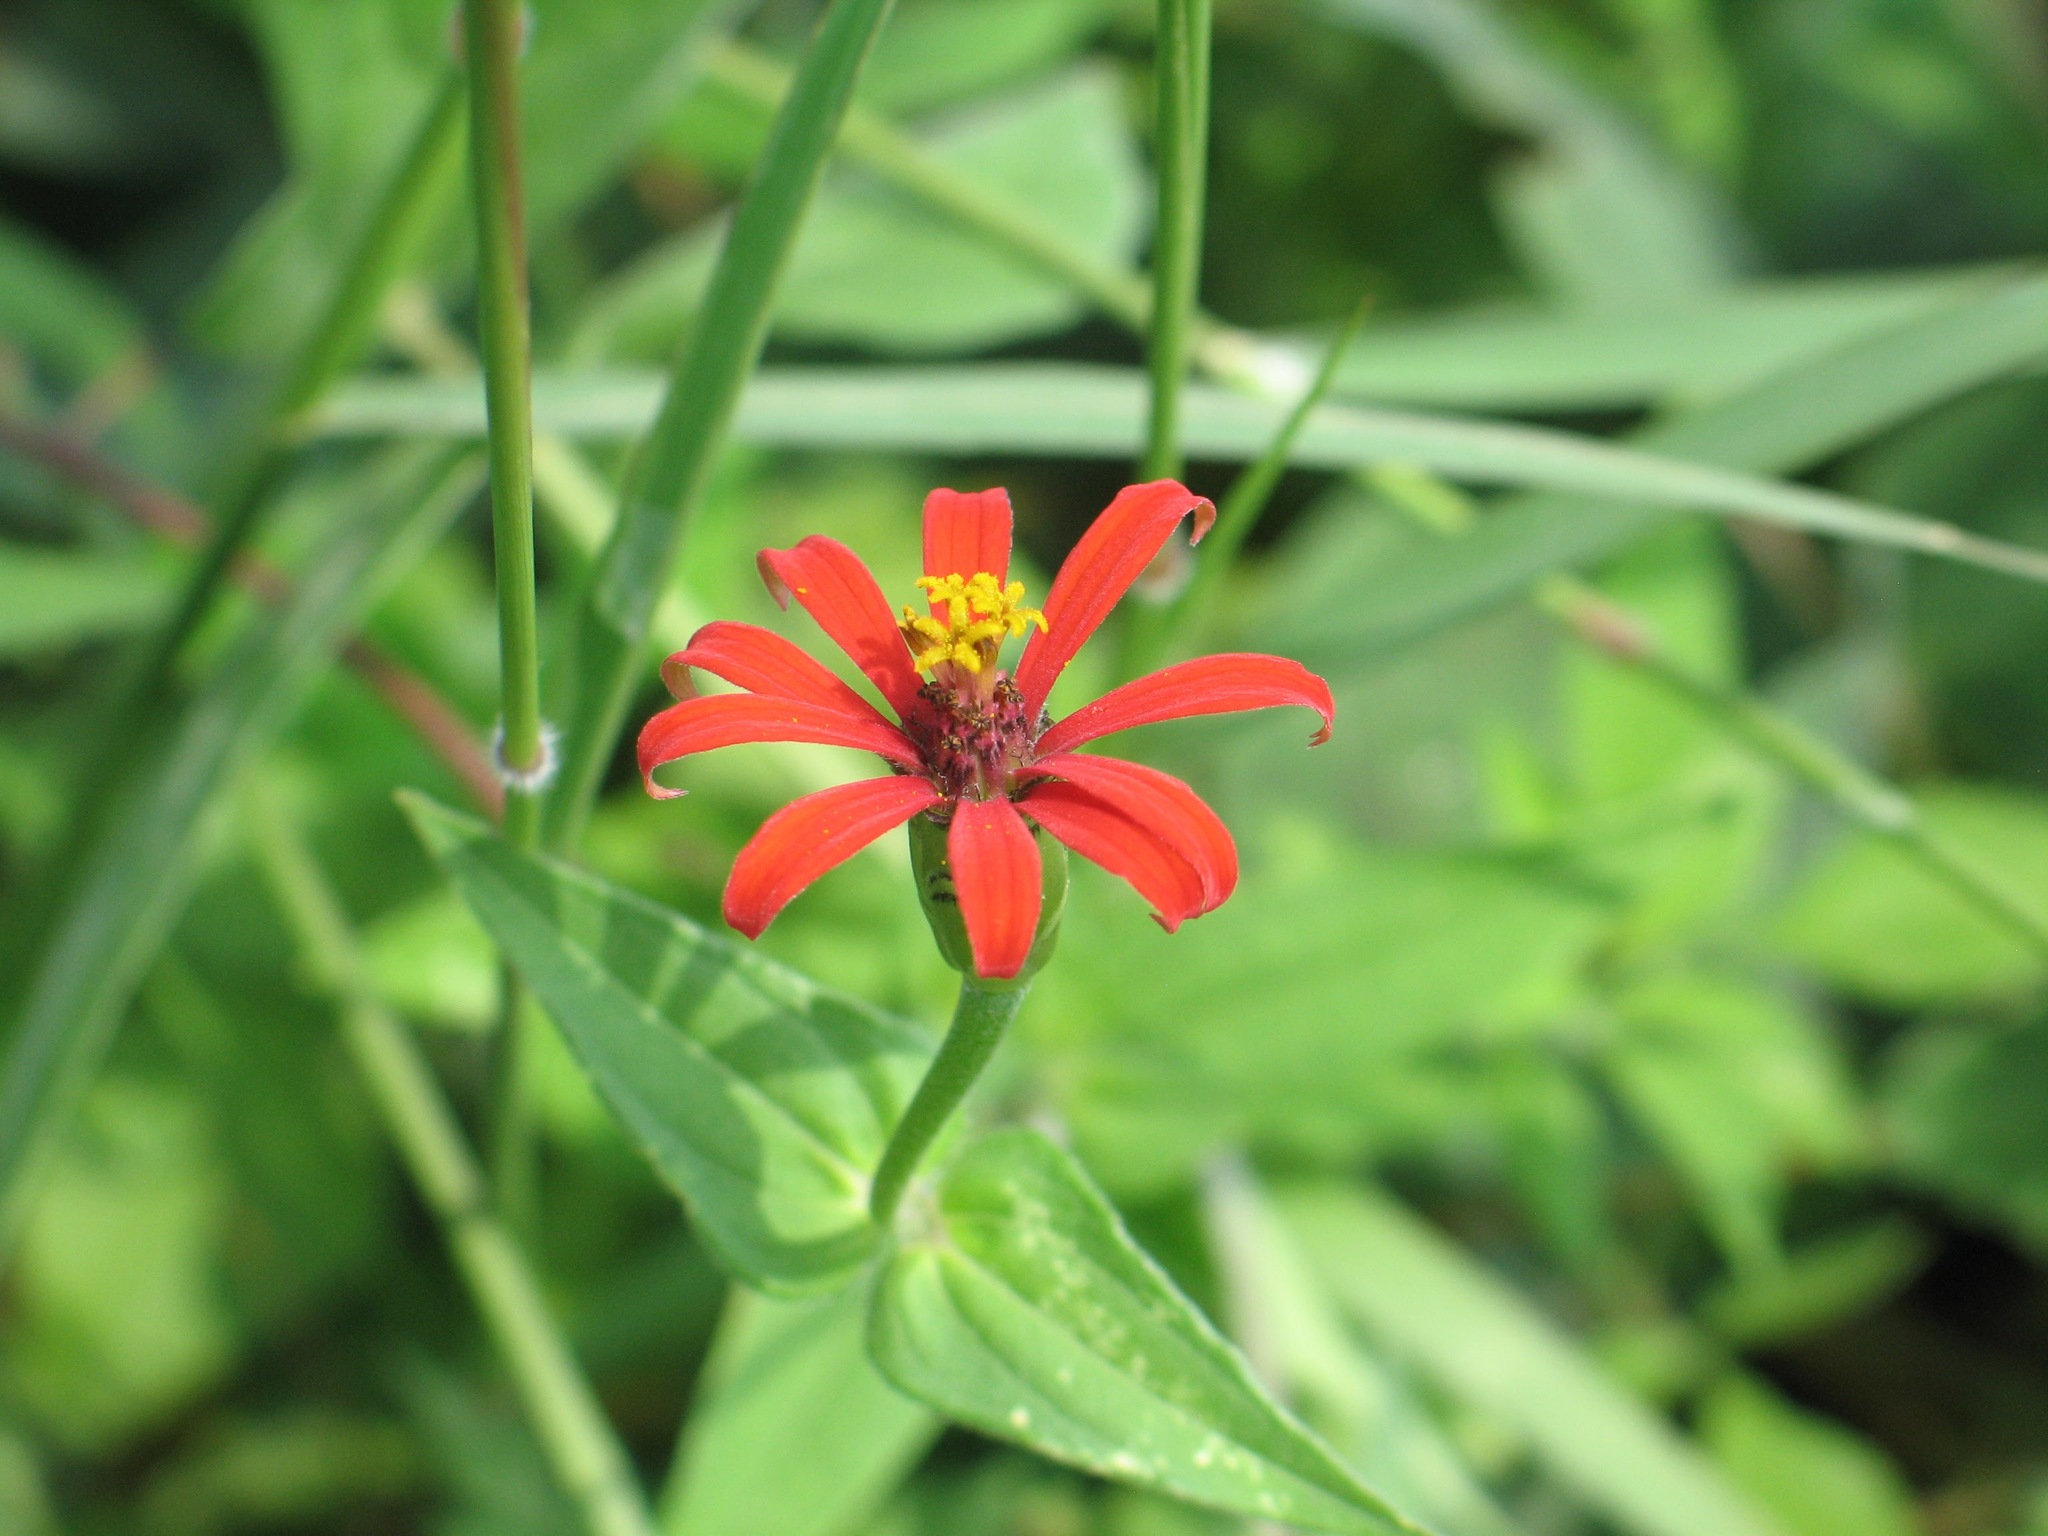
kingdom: Plantae
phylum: Tracheophyta
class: Magnoliopsida
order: Asterales
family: Asteraceae
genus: Zinnia
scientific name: Zinnia peruviana
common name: Peruvian zinnia
